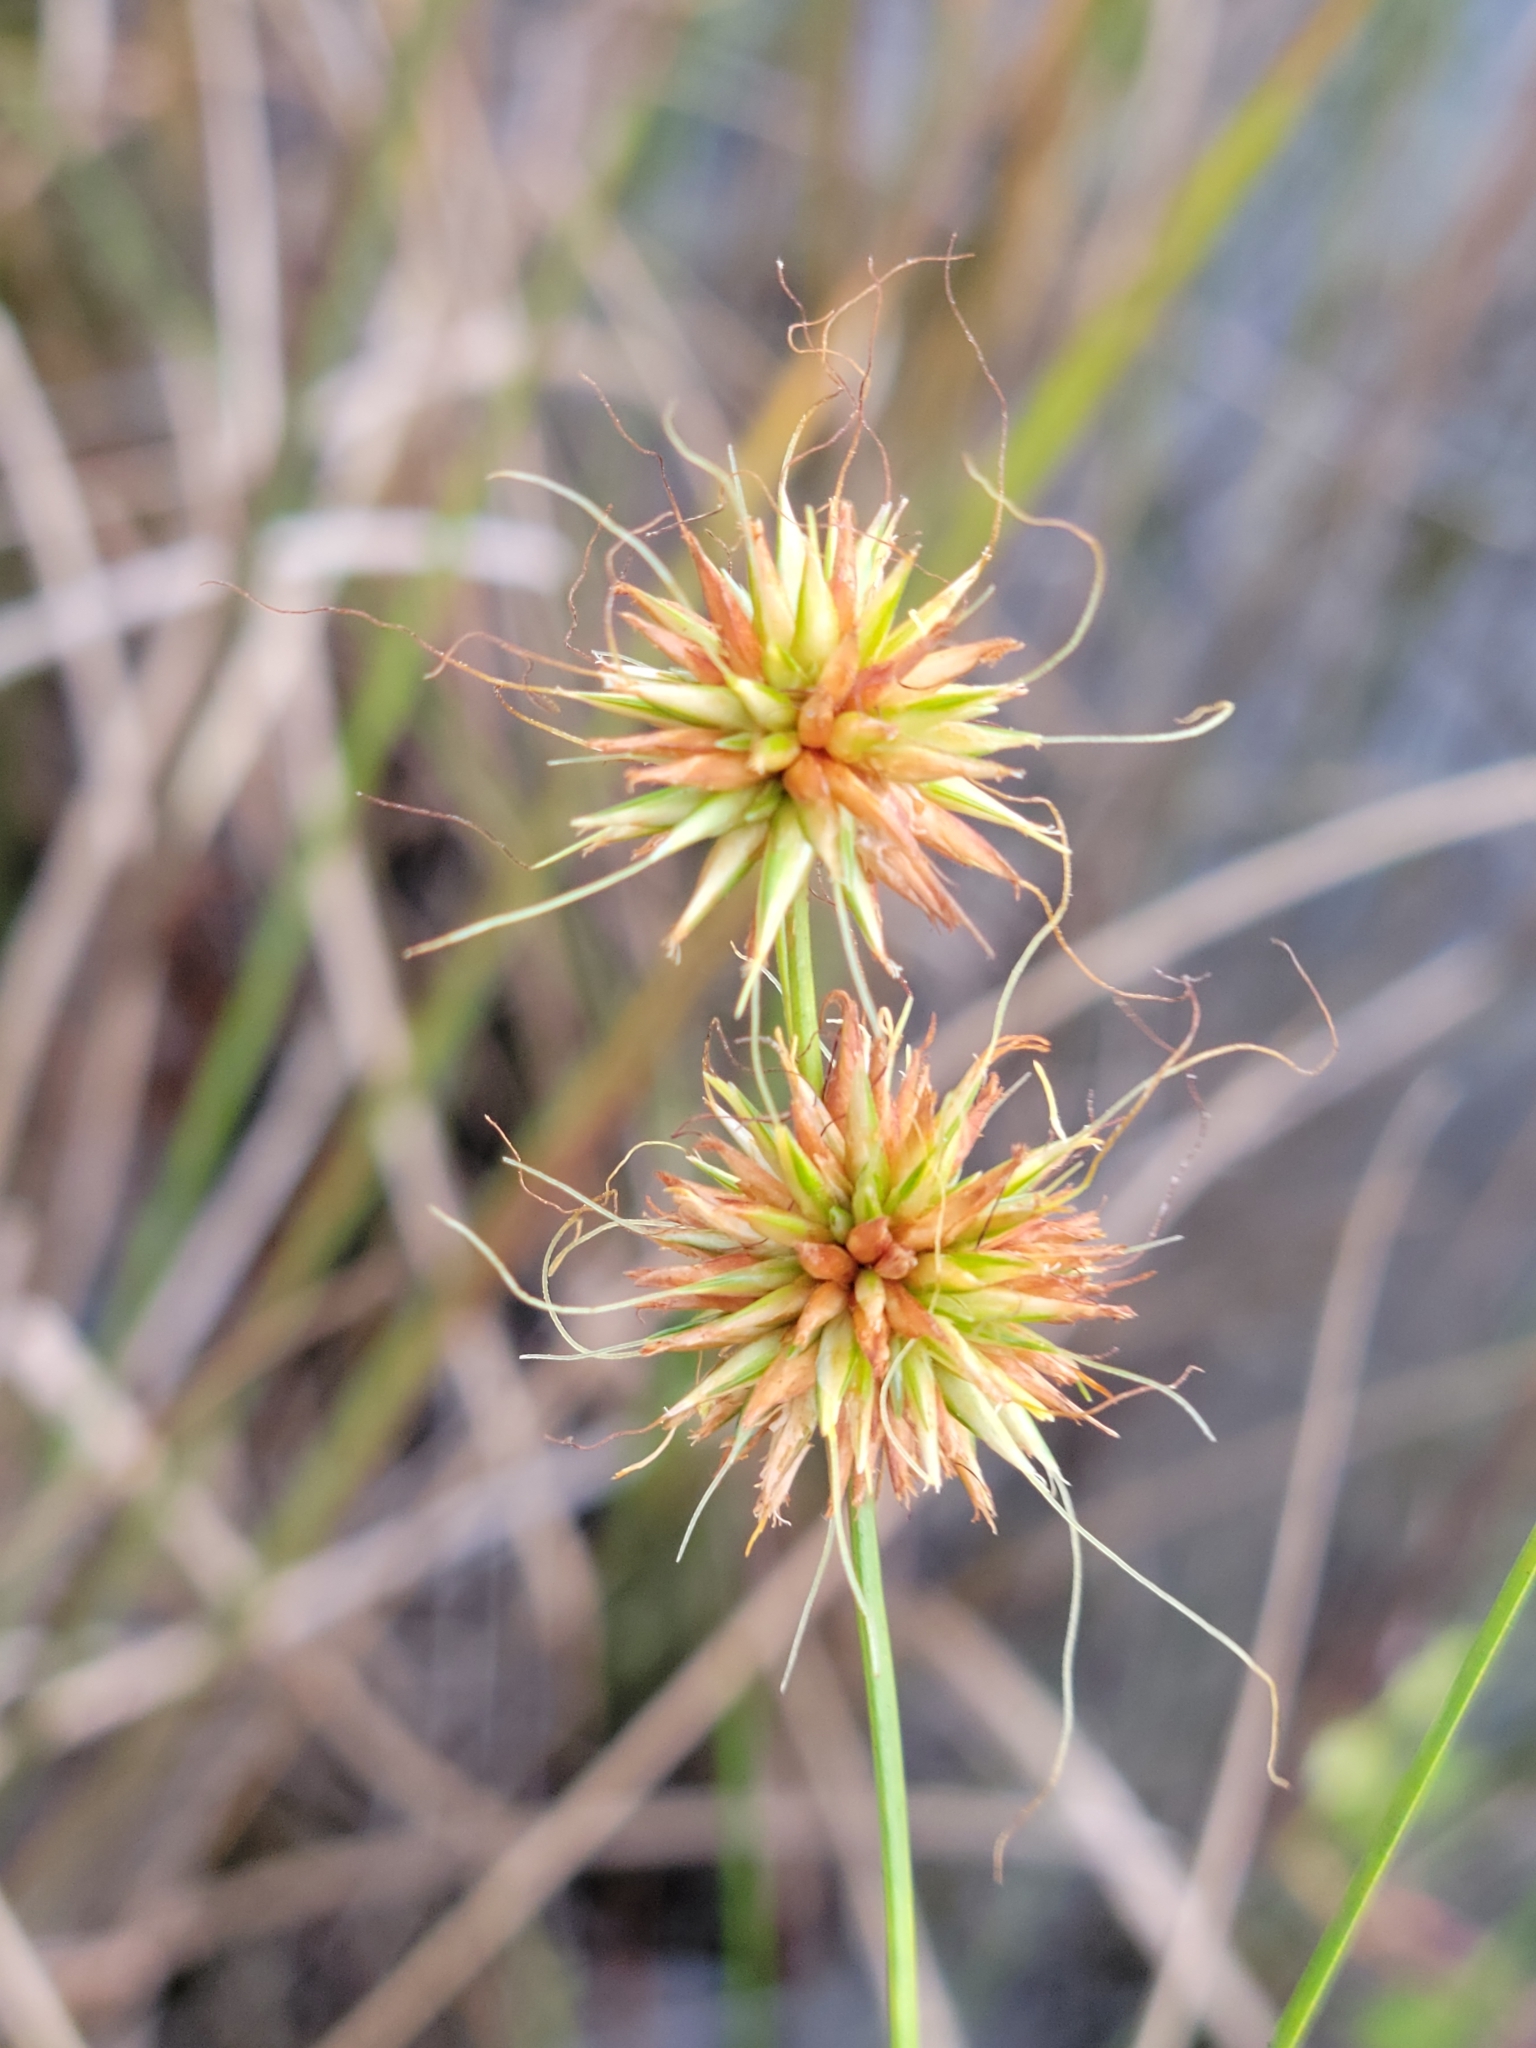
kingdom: Plantae
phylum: Tracheophyta
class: Liliopsida
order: Poales
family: Cyperaceae
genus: Rhynchospora
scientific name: Rhynchospora tracyi
